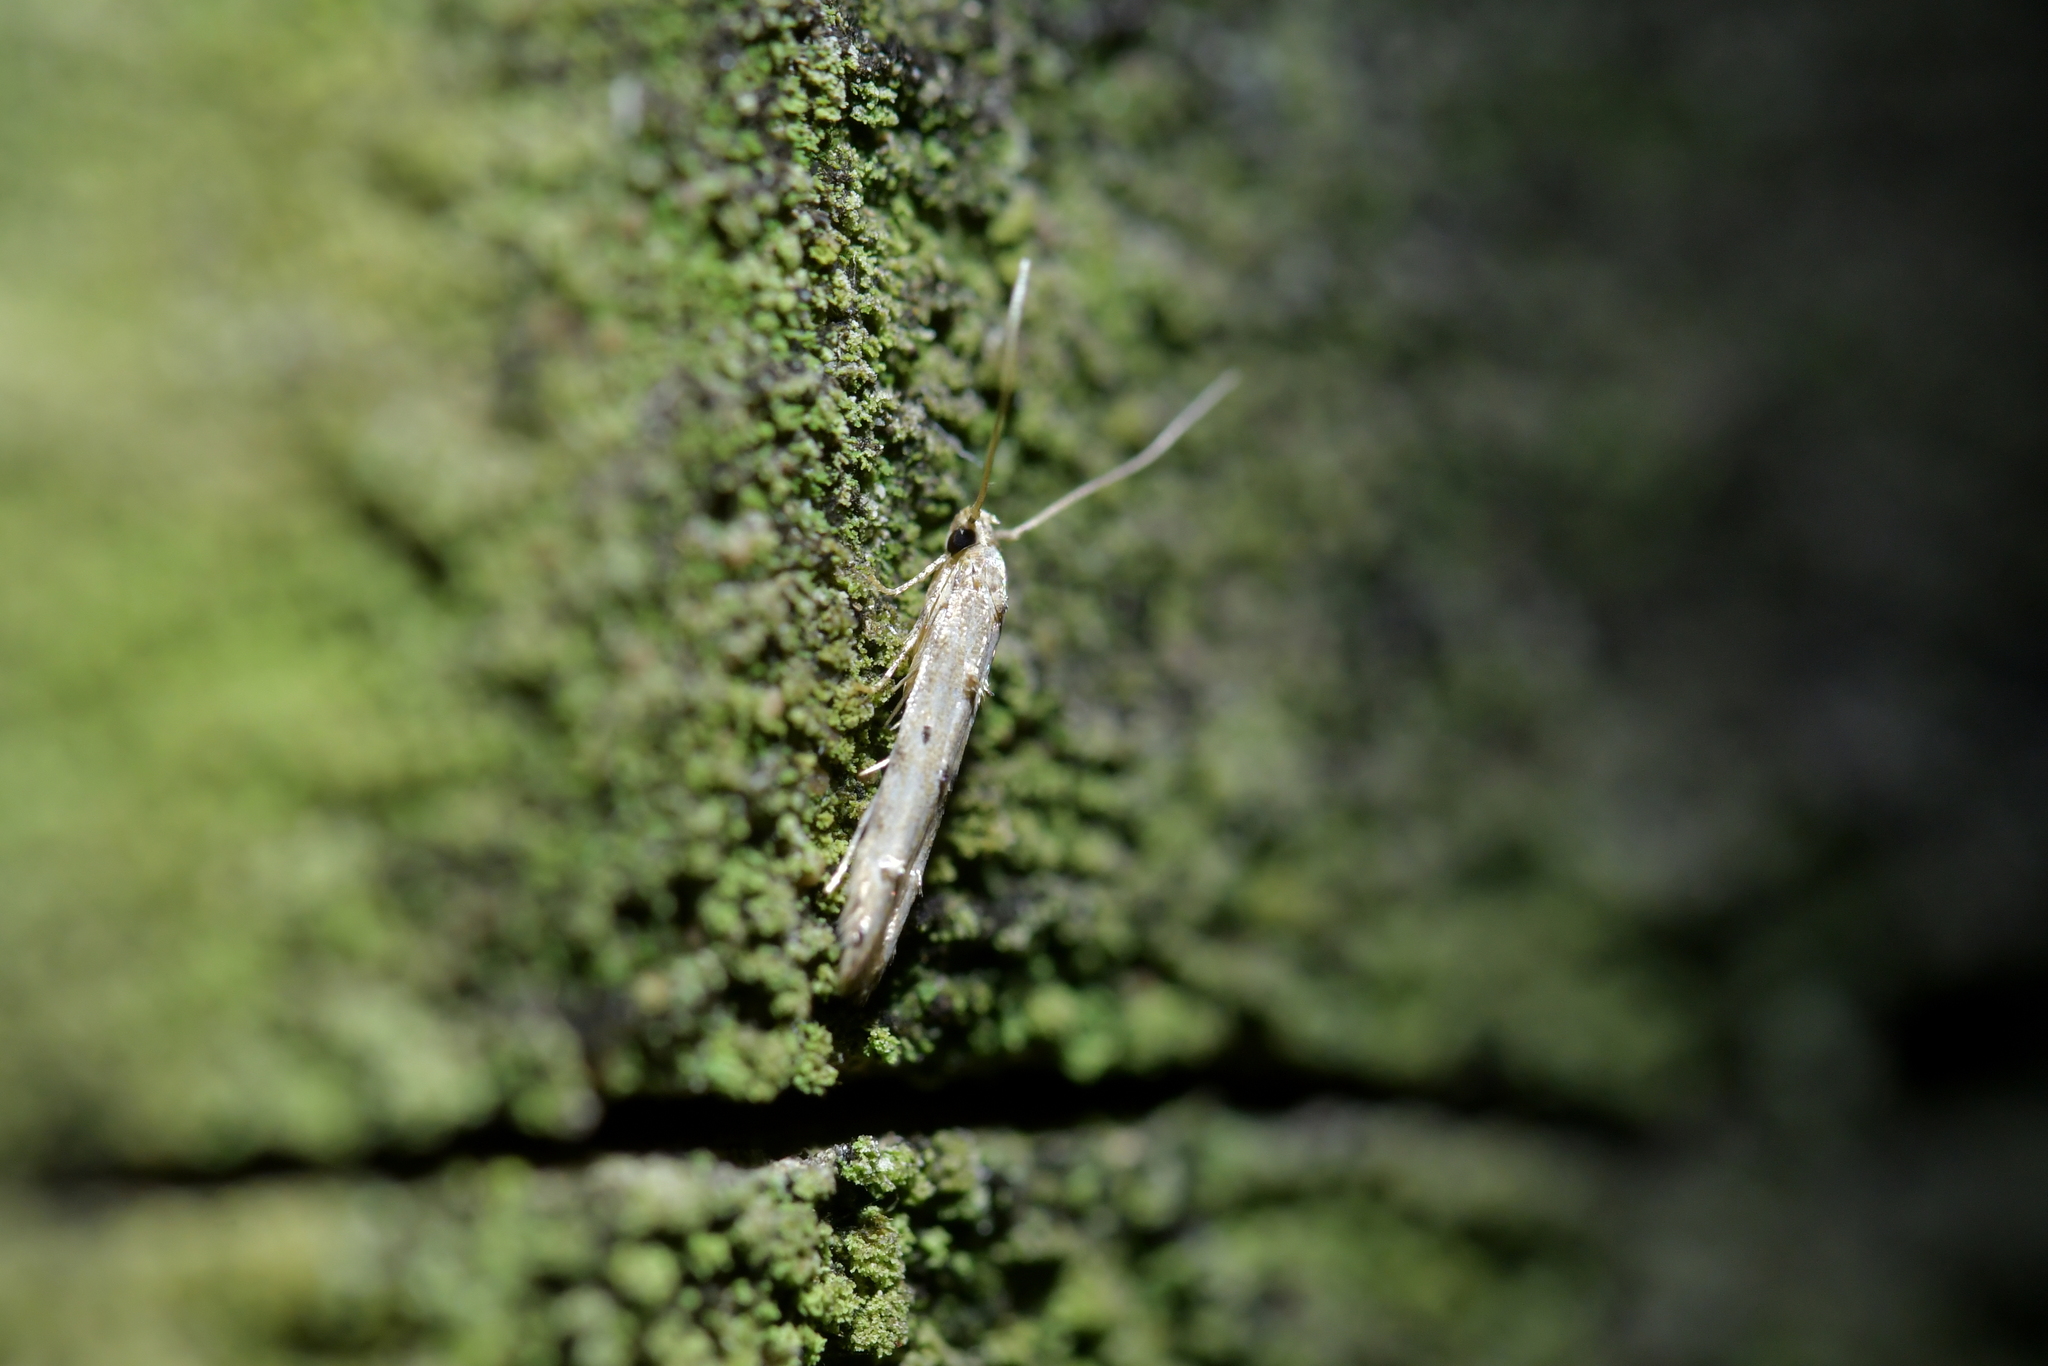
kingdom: Animalia
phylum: Arthropoda
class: Insecta
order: Lepidoptera
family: Elachistidae
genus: Microcolona
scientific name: Microcolona limodes
